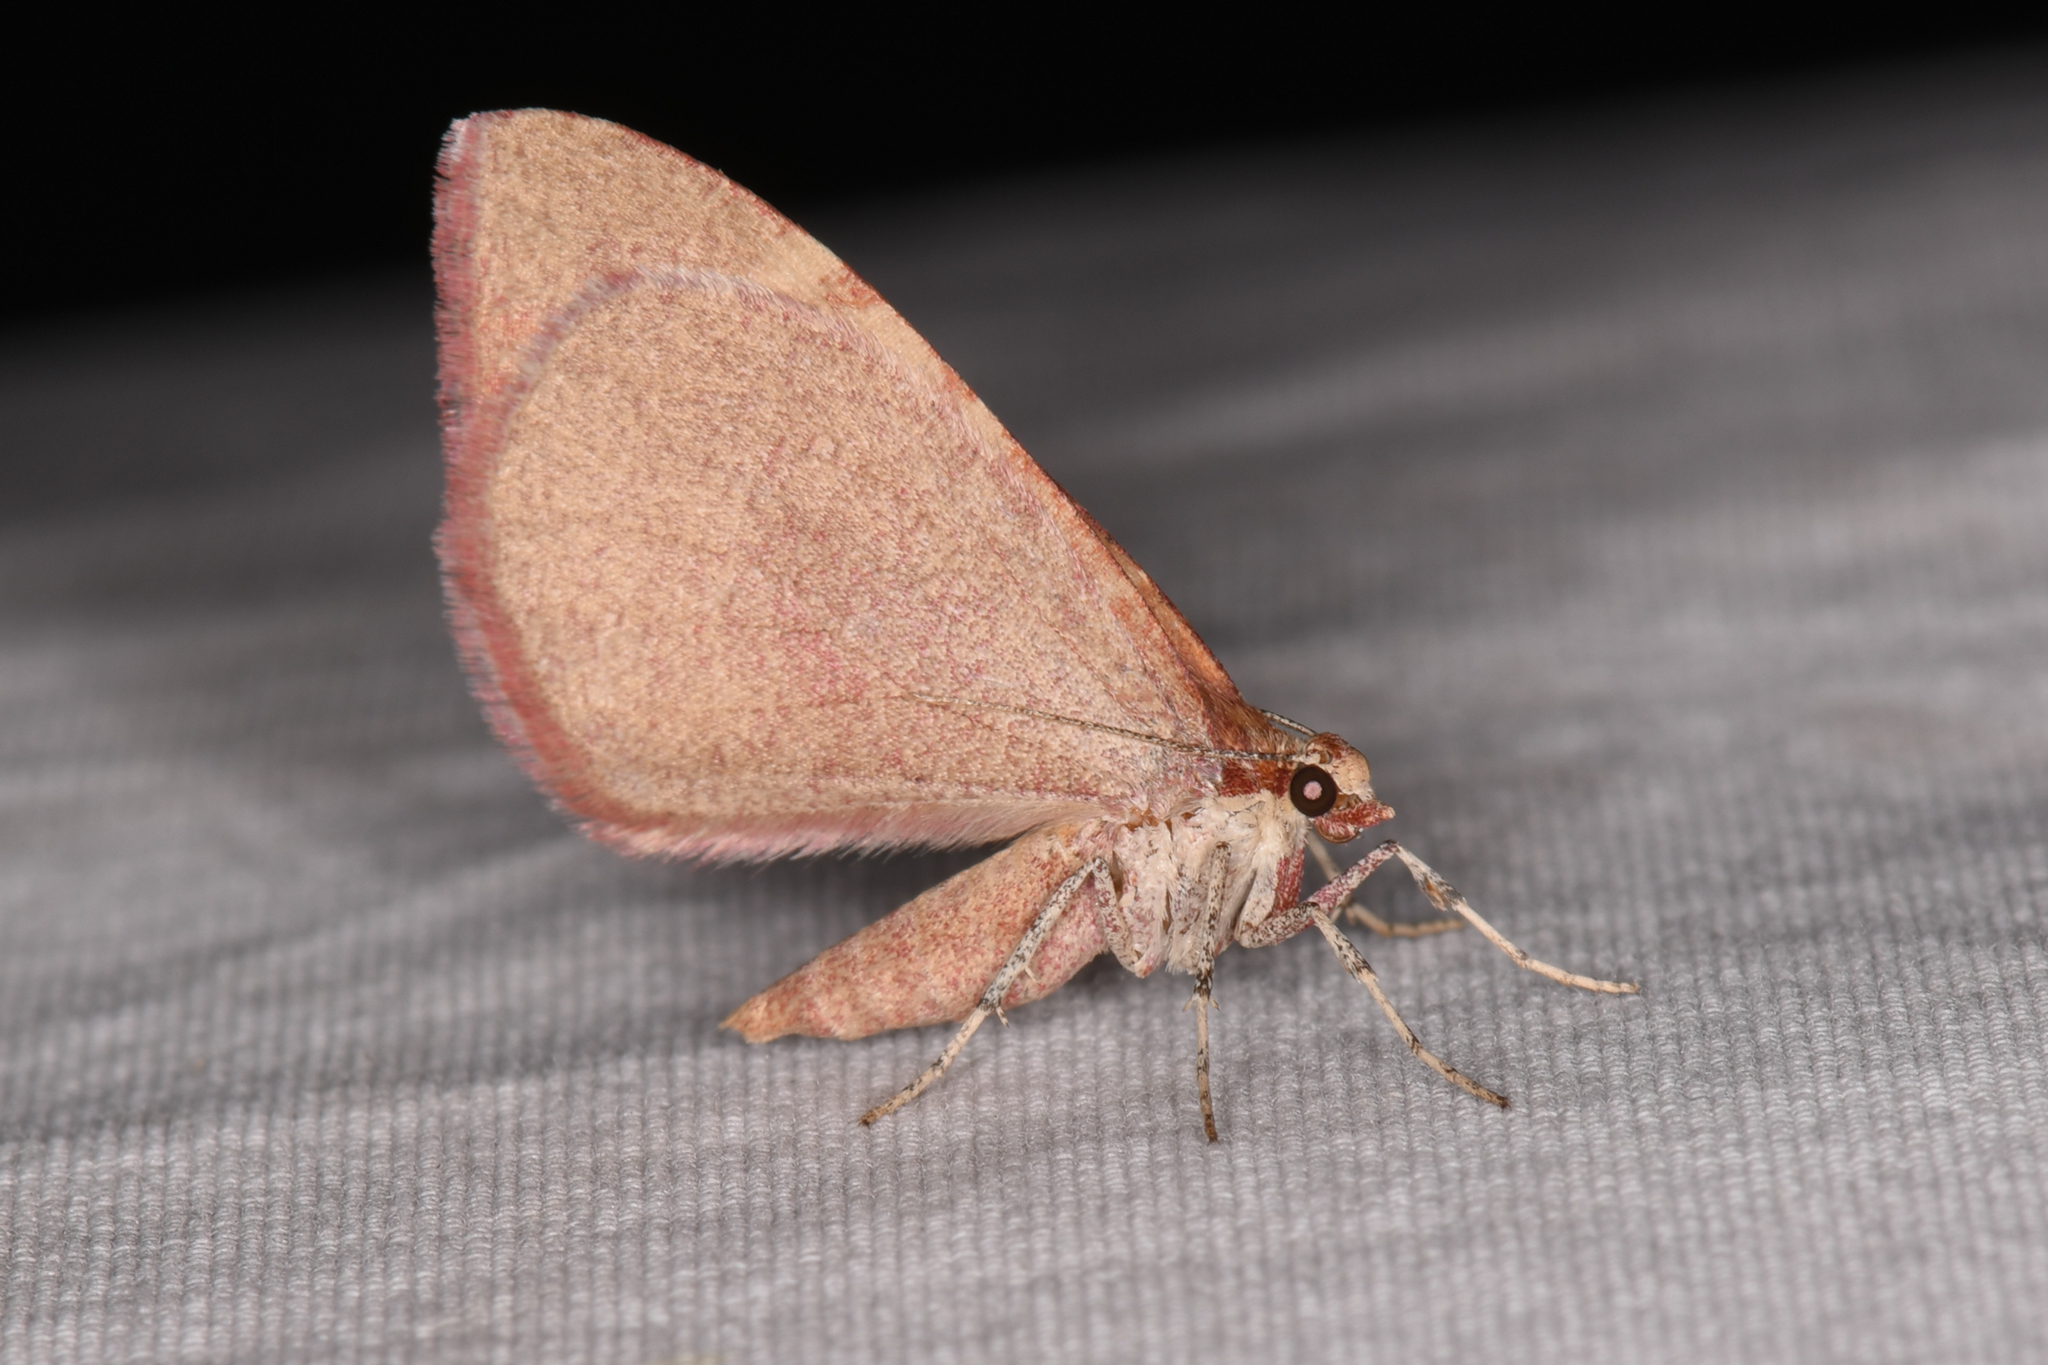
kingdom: Animalia
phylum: Arthropoda
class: Insecta
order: Lepidoptera
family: Geometridae
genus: Stamnodes
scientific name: Stamnodes ululata
